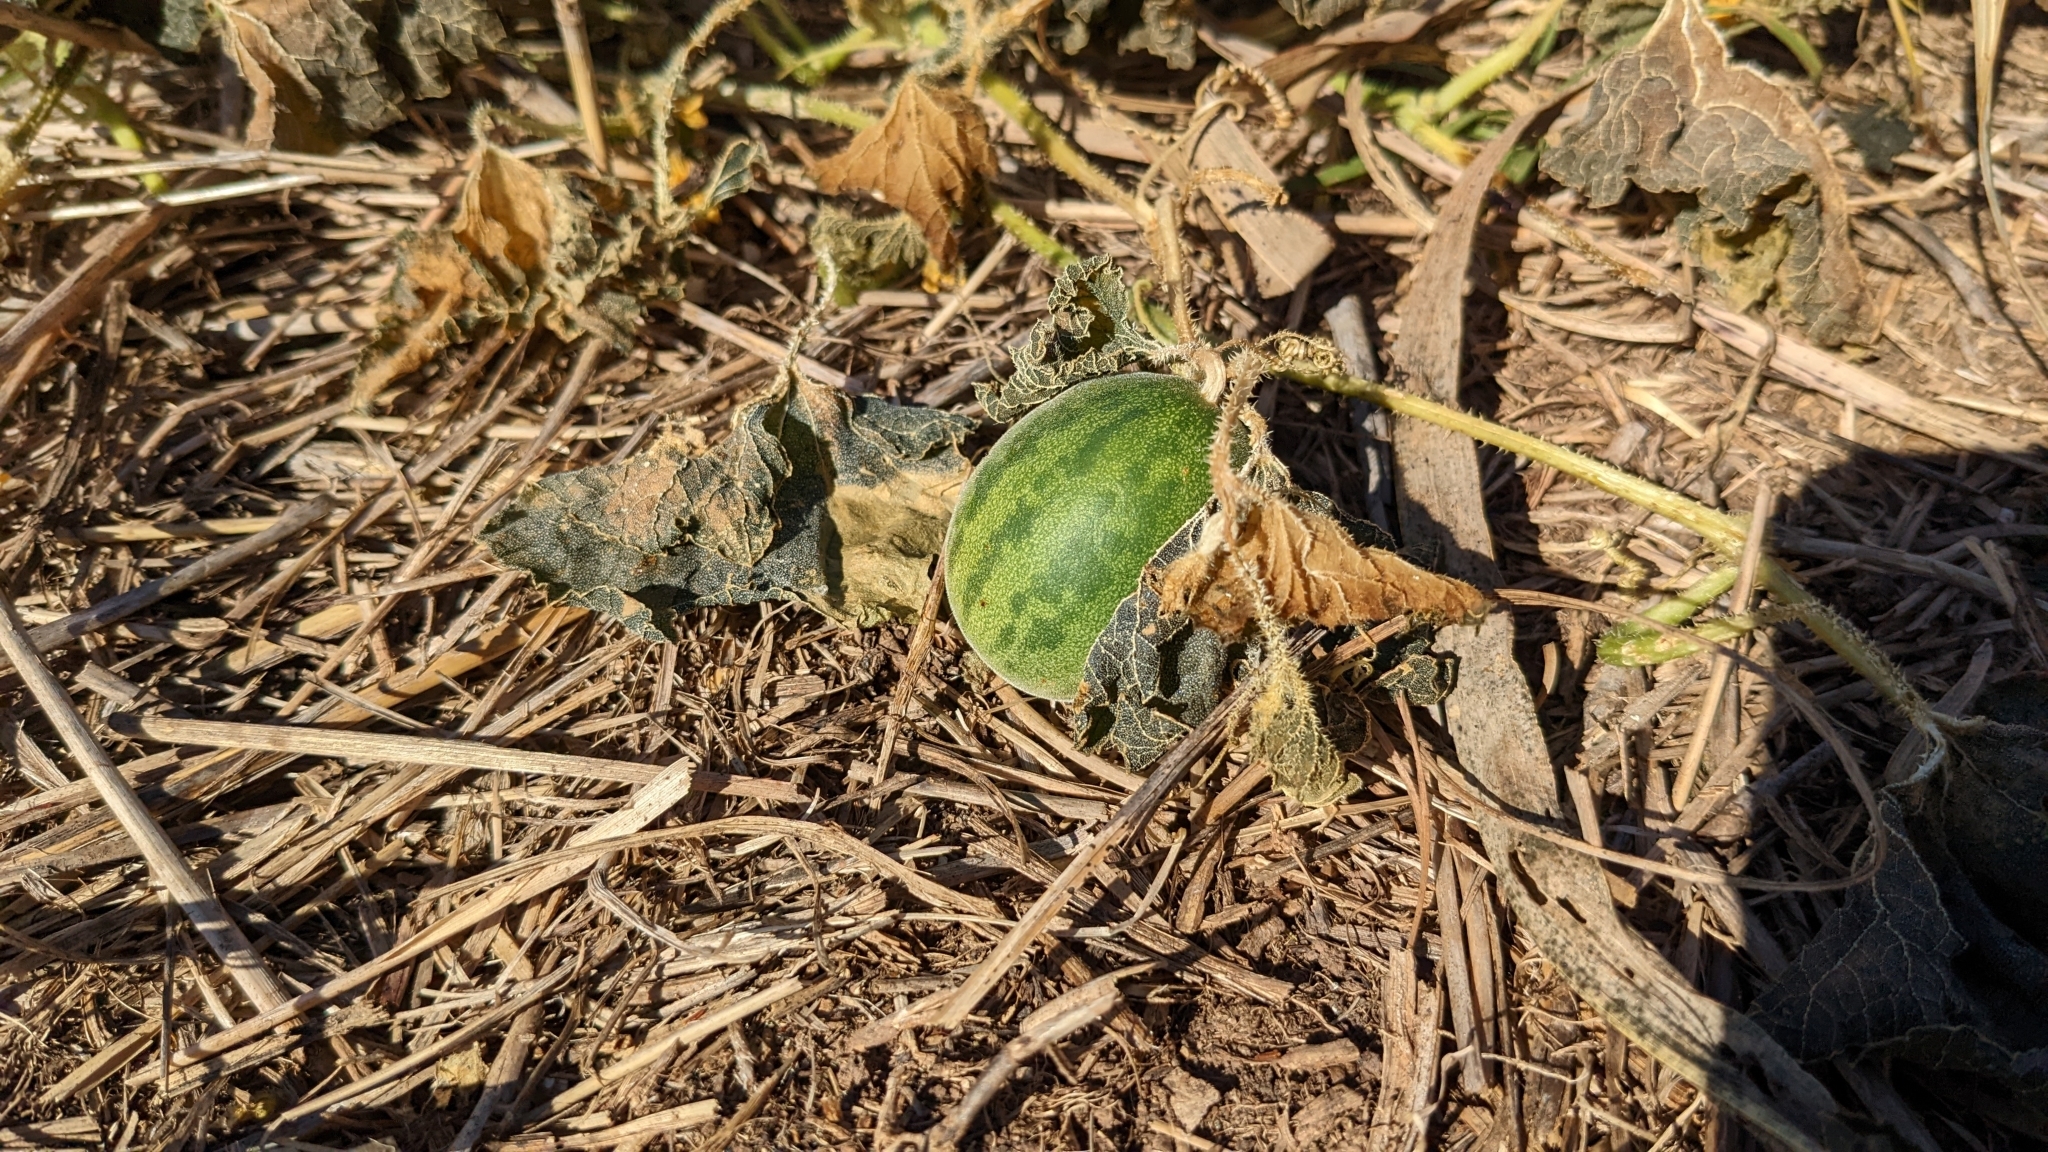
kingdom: Plantae
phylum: Tracheophyta
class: Magnoliopsida
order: Cucurbitales
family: Cucurbitaceae
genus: Cucumis
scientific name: Cucumis melo
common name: Melon
